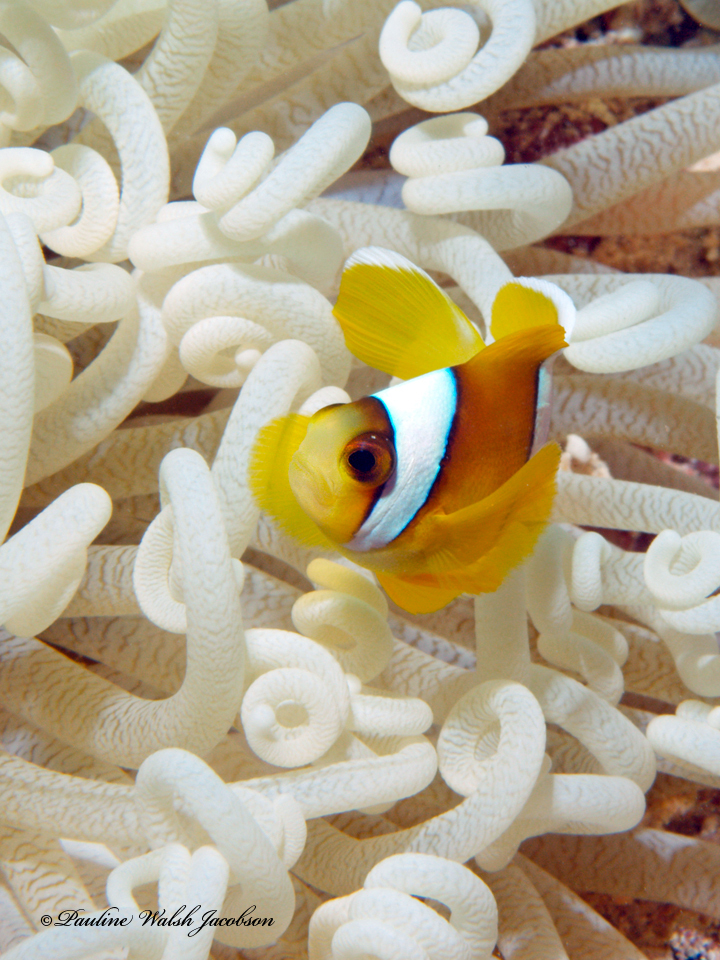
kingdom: Animalia
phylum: Chordata
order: Perciformes
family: Pomacentridae
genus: Amphiprion
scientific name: Amphiprion bicinctus
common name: Two-banded anemonefish
